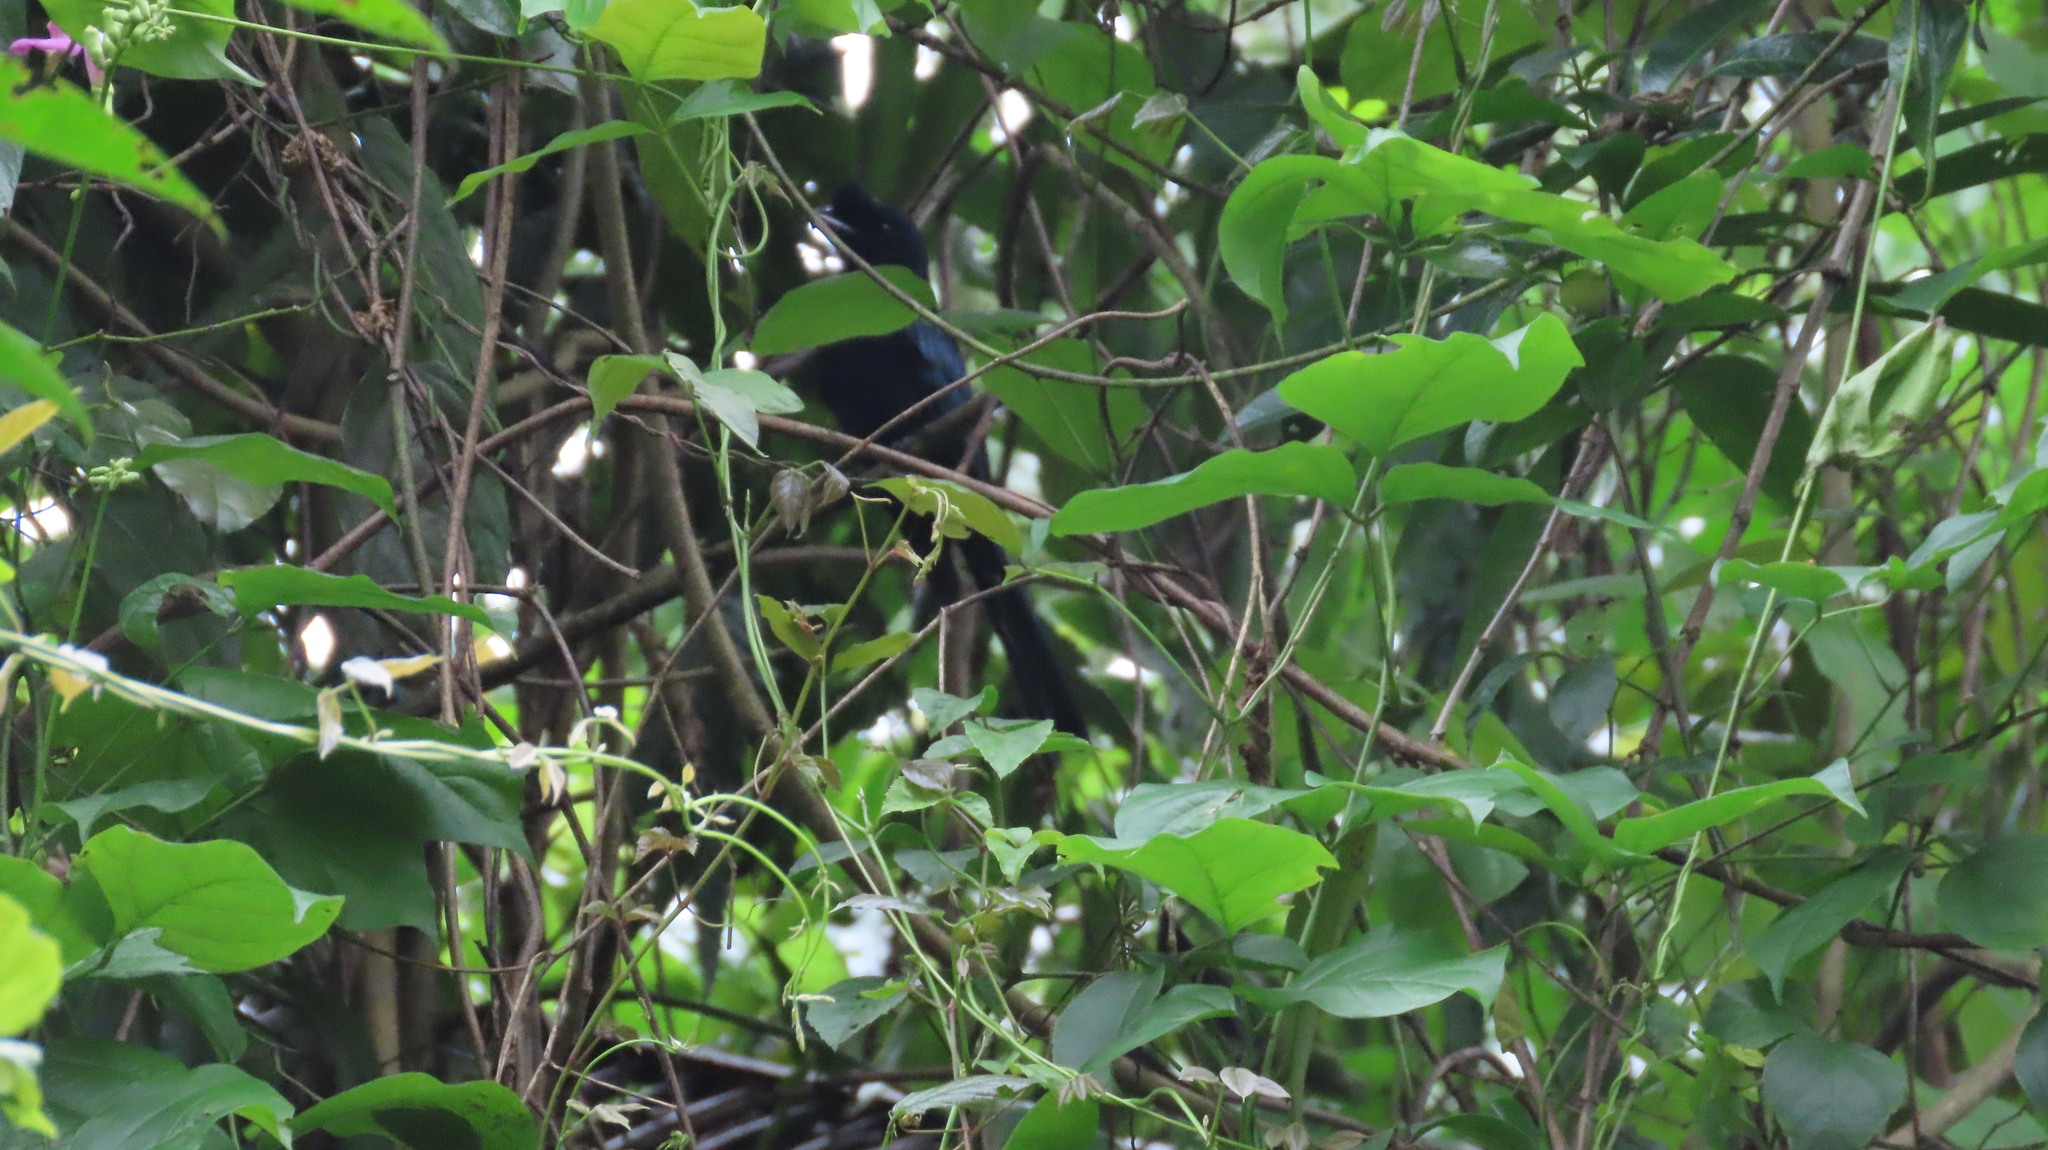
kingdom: Animalia
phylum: Chordata
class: Aves
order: Passeriformes
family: Dicruridae
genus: Dicrurus
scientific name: Dicrurus paradiseus
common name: Greater racket-tailed drongo
